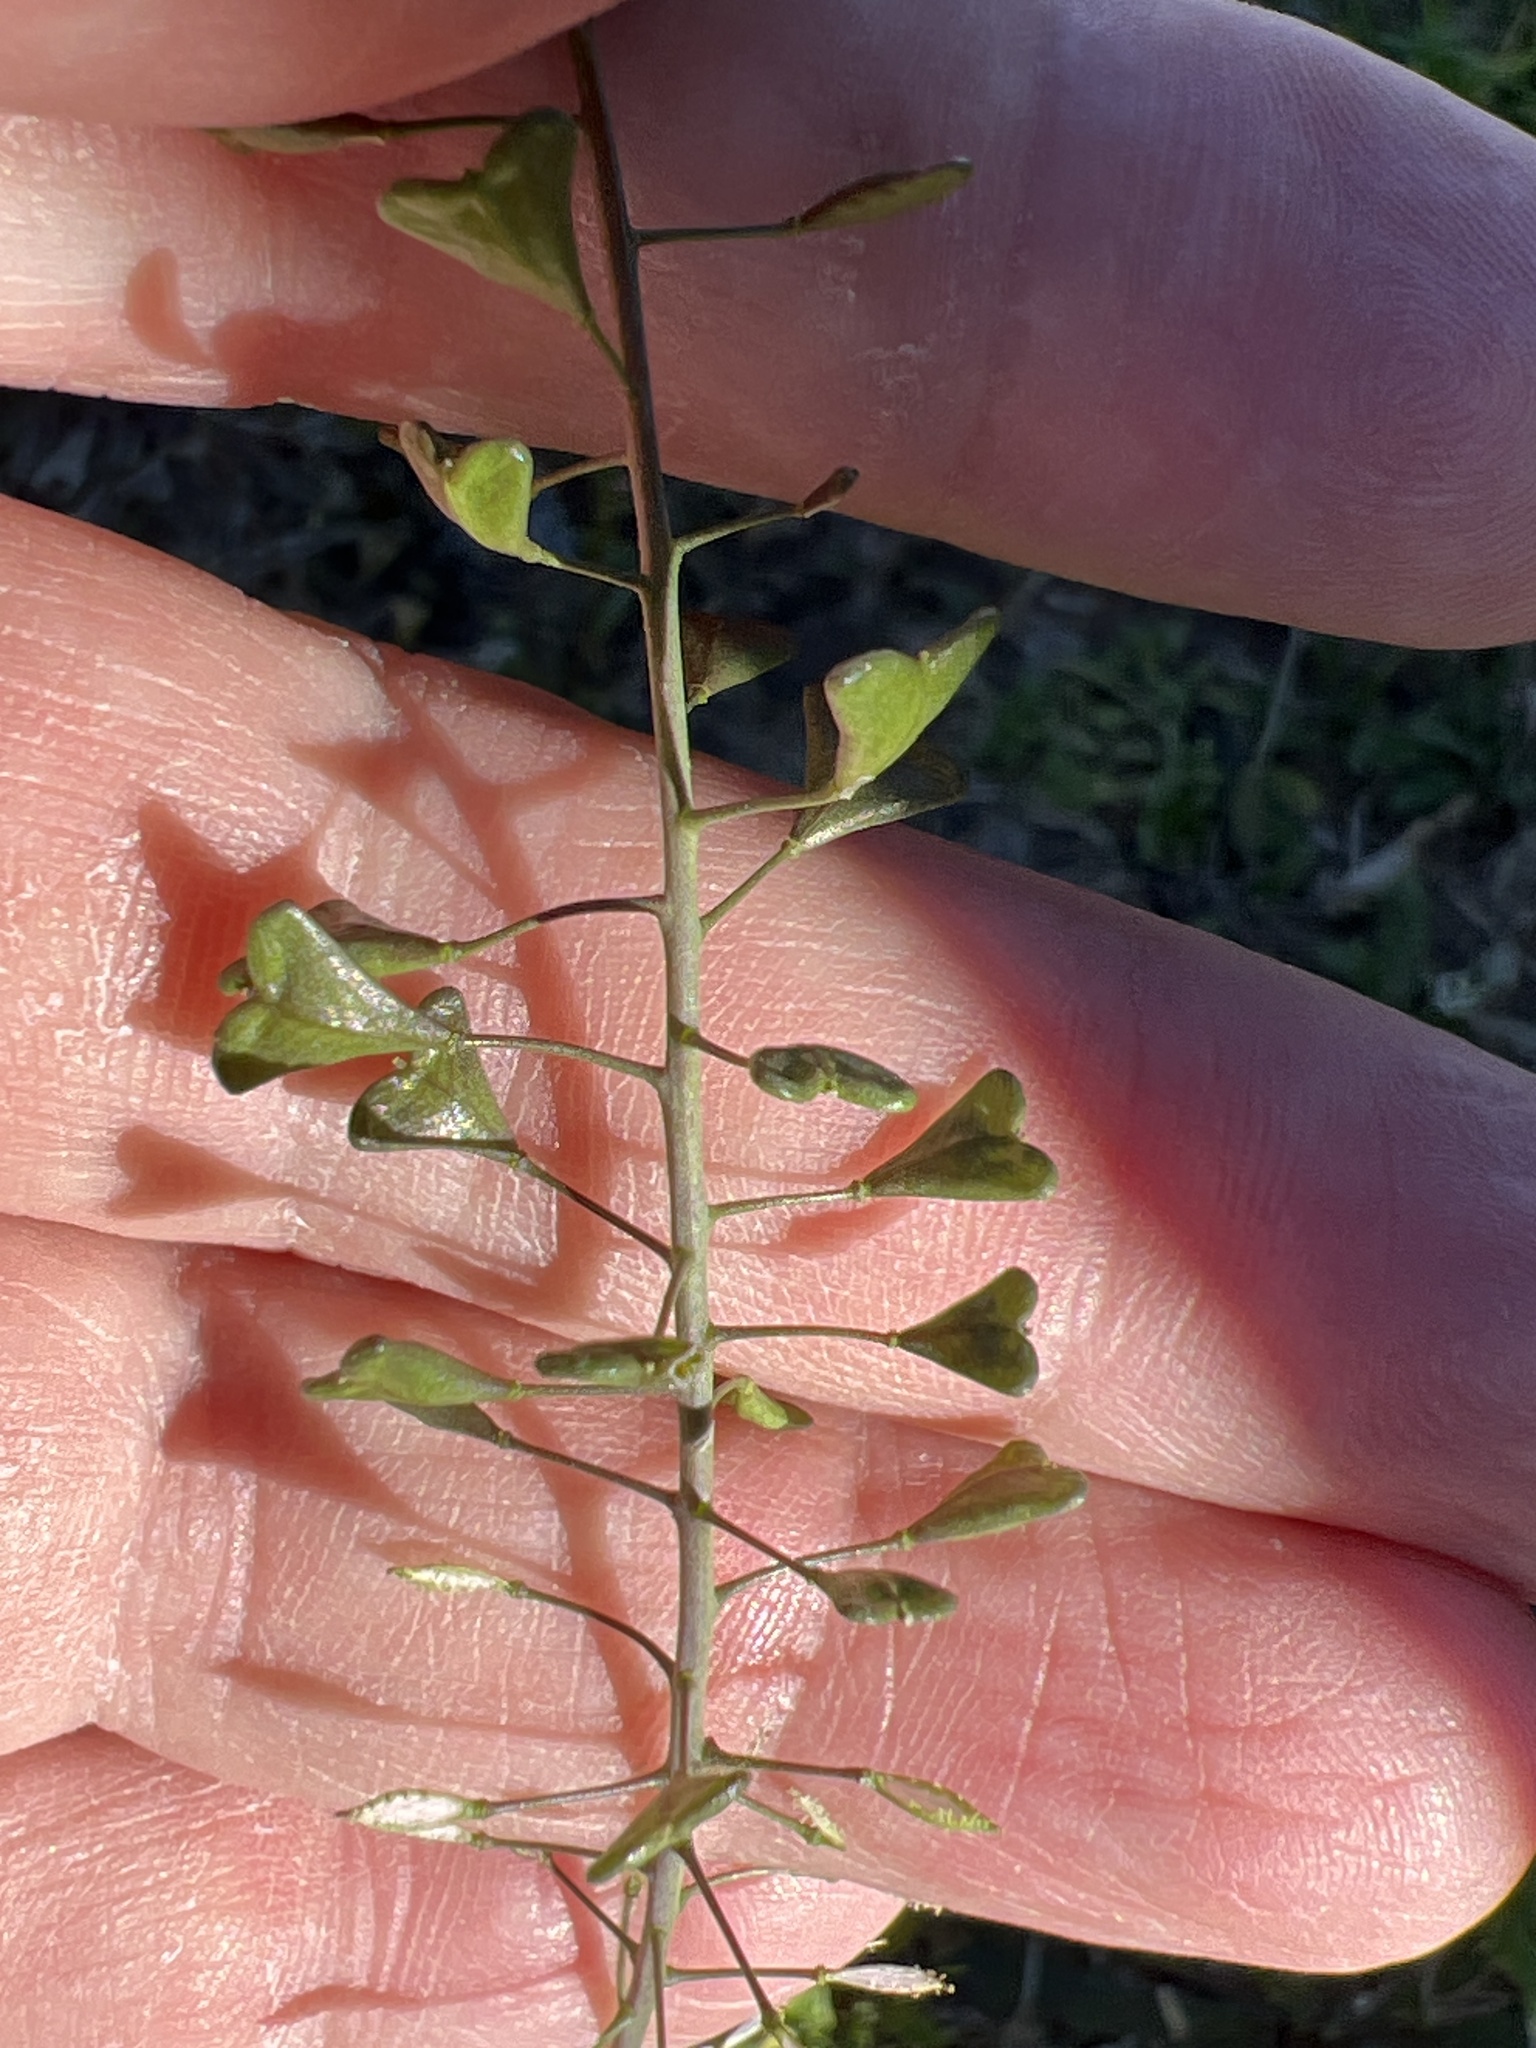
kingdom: Plantae
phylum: Tracheophyta
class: Magnoliopsida
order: Brassicales
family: Brassicaceae
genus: Capsella
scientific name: Capsella bursa-pastoris
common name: Shepherd's purse
